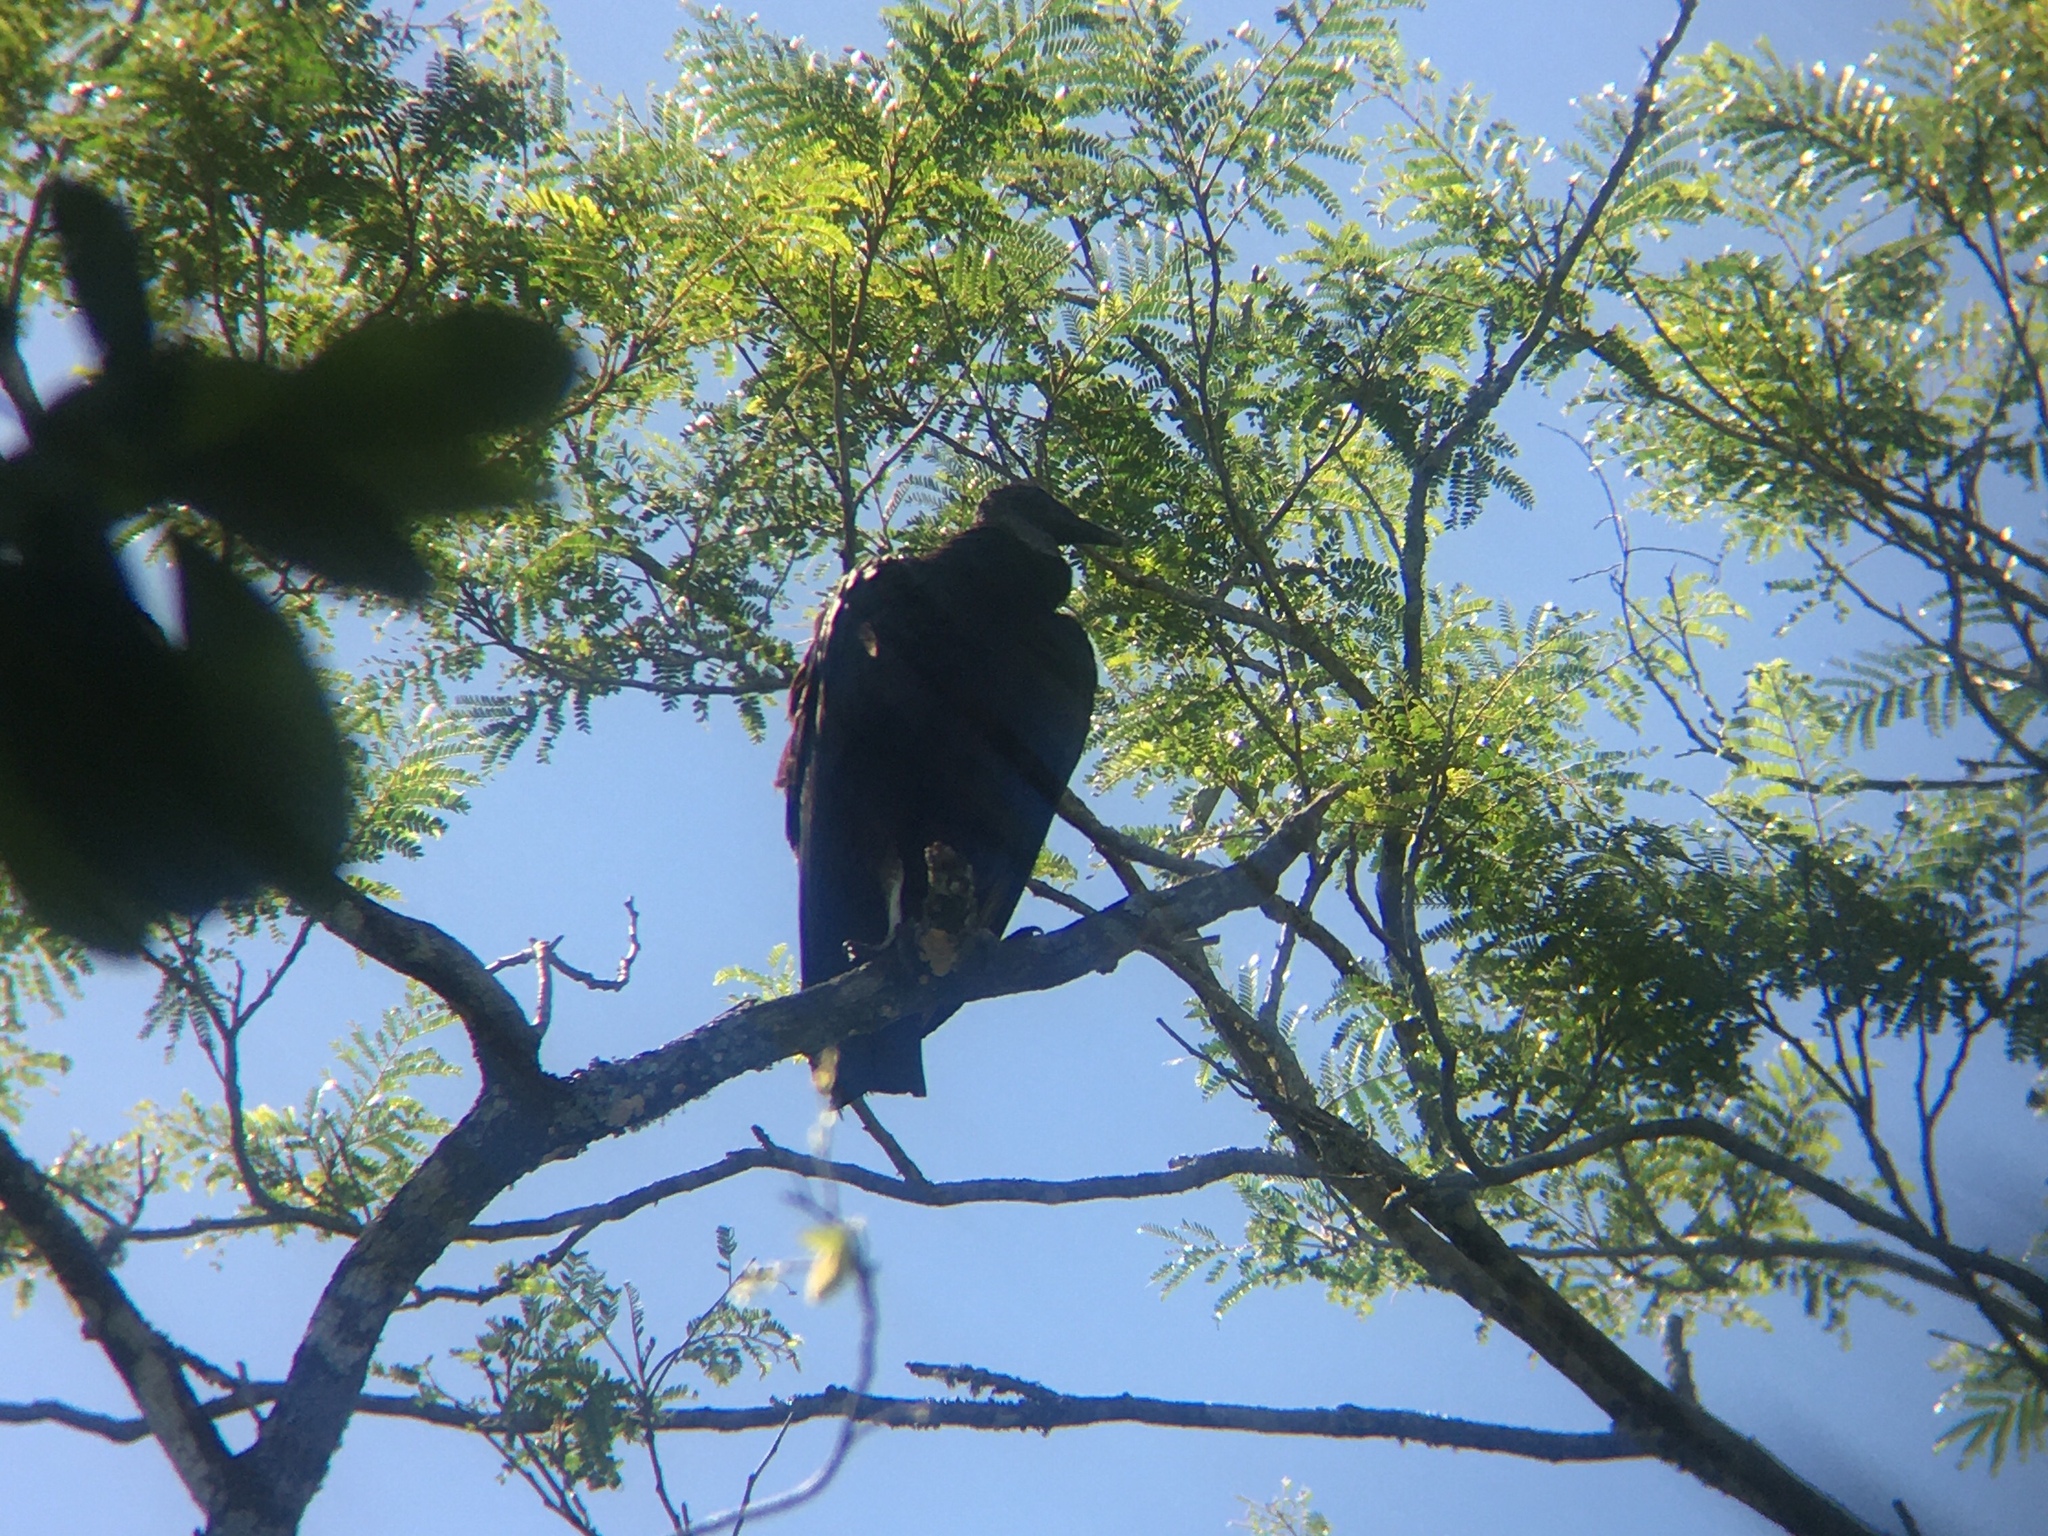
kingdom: Animalia
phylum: Chordata
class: Aves
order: Accipitriformes
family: Cathartidae
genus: Coragyps
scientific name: Coragyps atratus
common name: Black vulture
